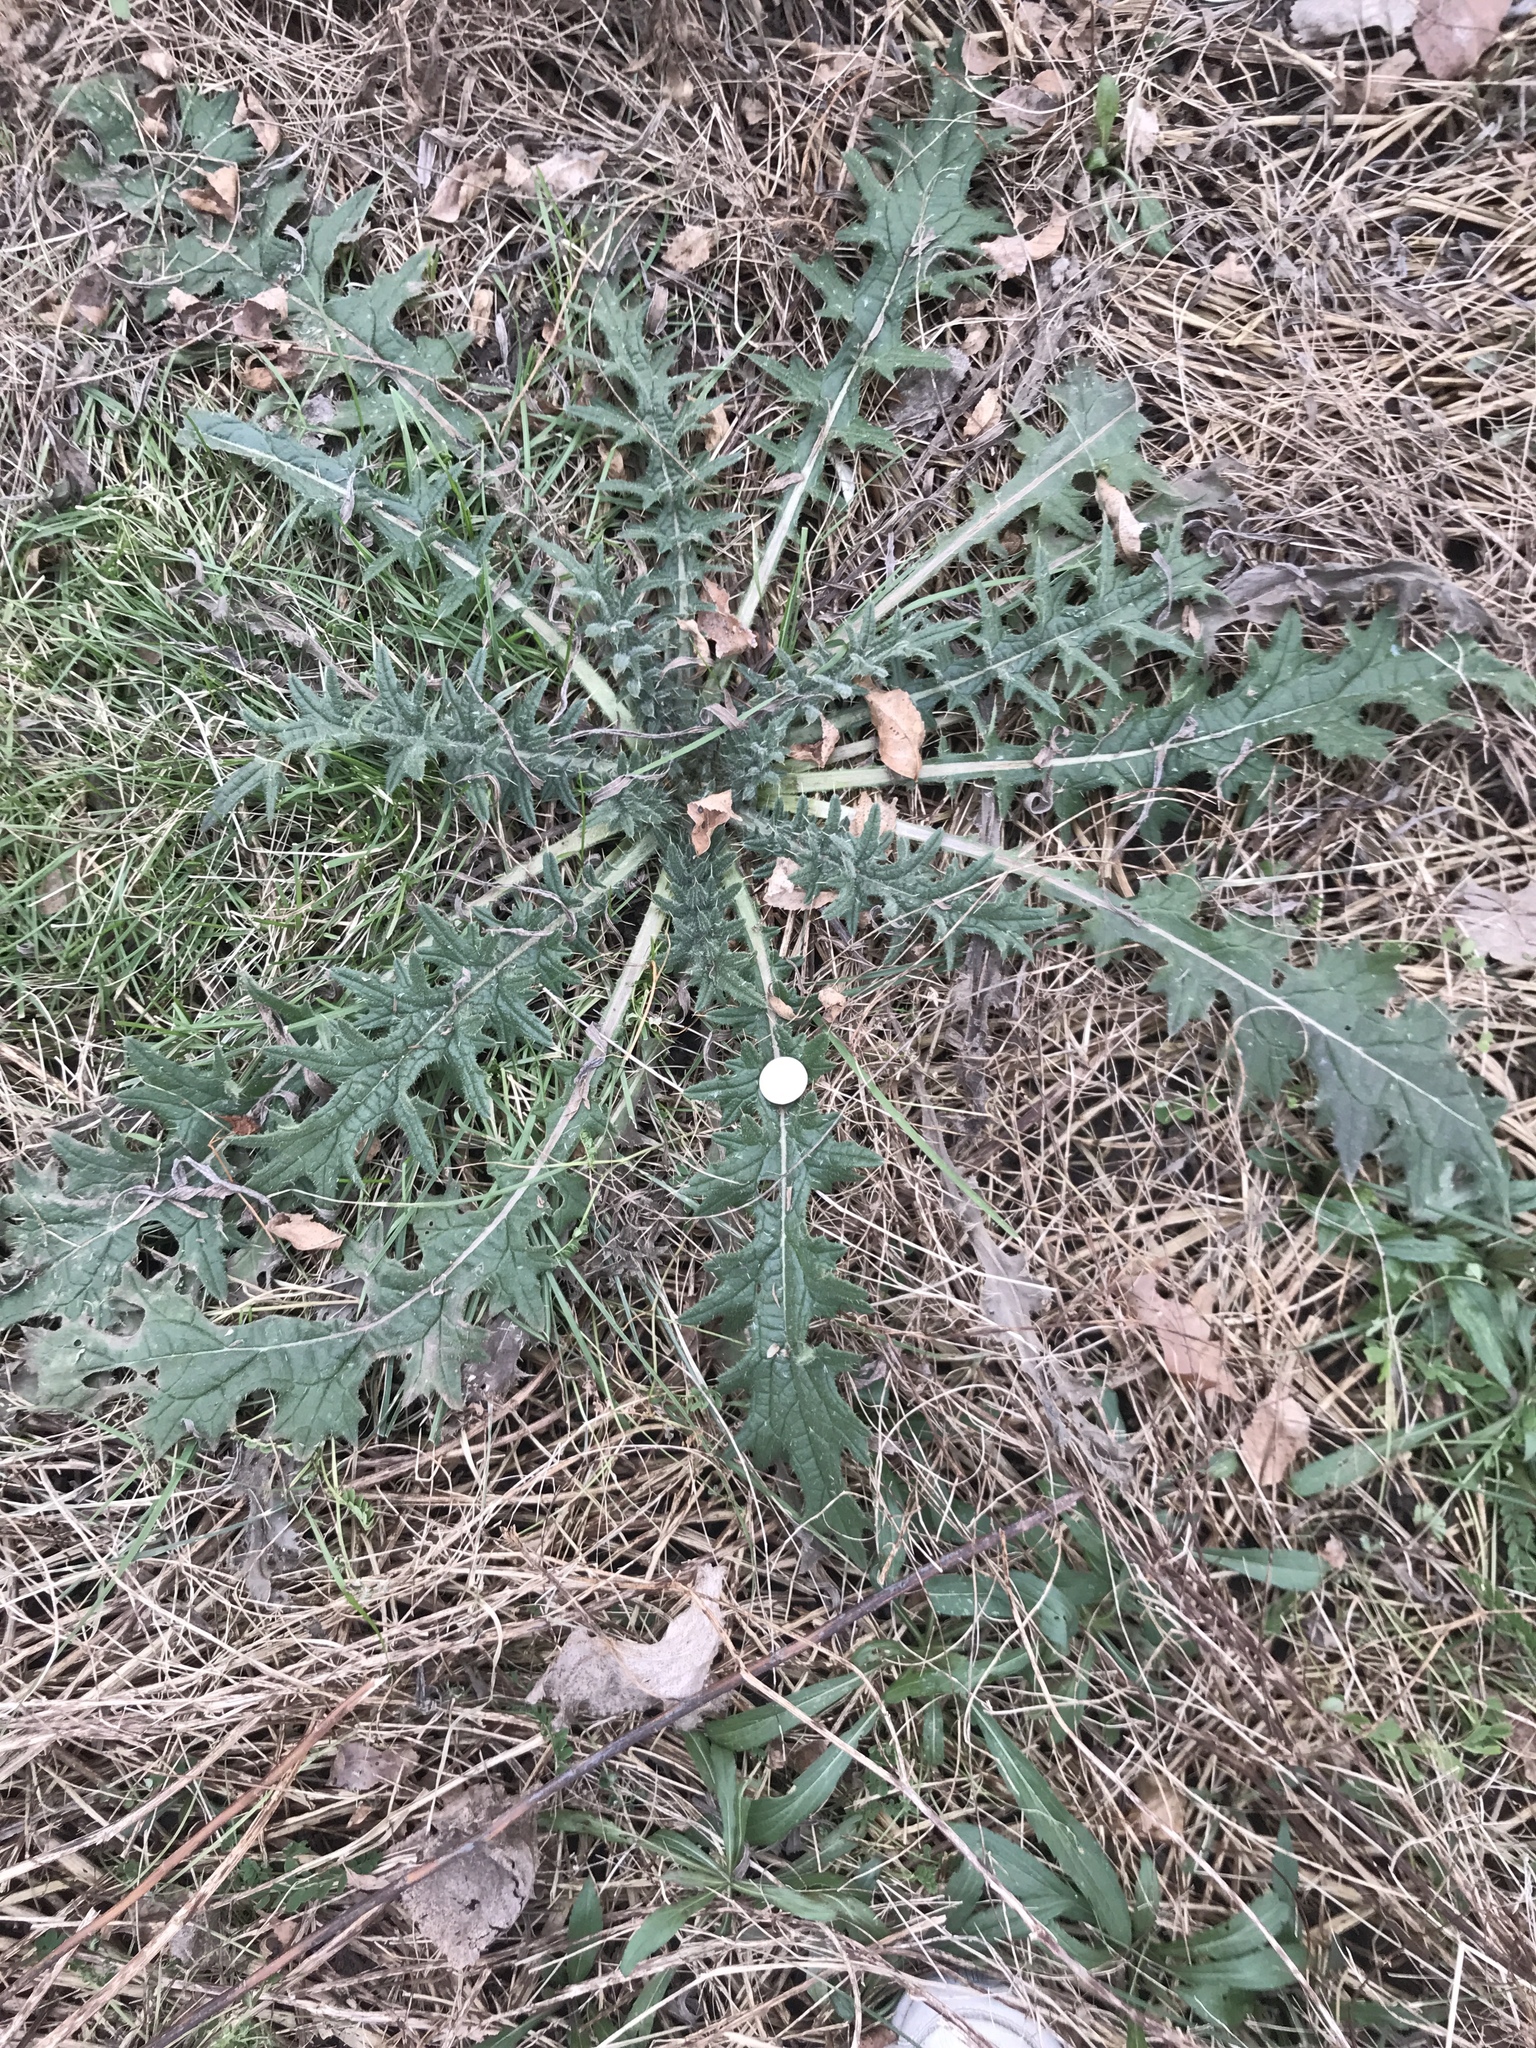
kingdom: Plantae
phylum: Tracheophyta
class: Magnoliopsida
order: Asterales
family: Asteraceae
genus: Cirsium
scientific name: Cirsium vulgare
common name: Bull thistle
